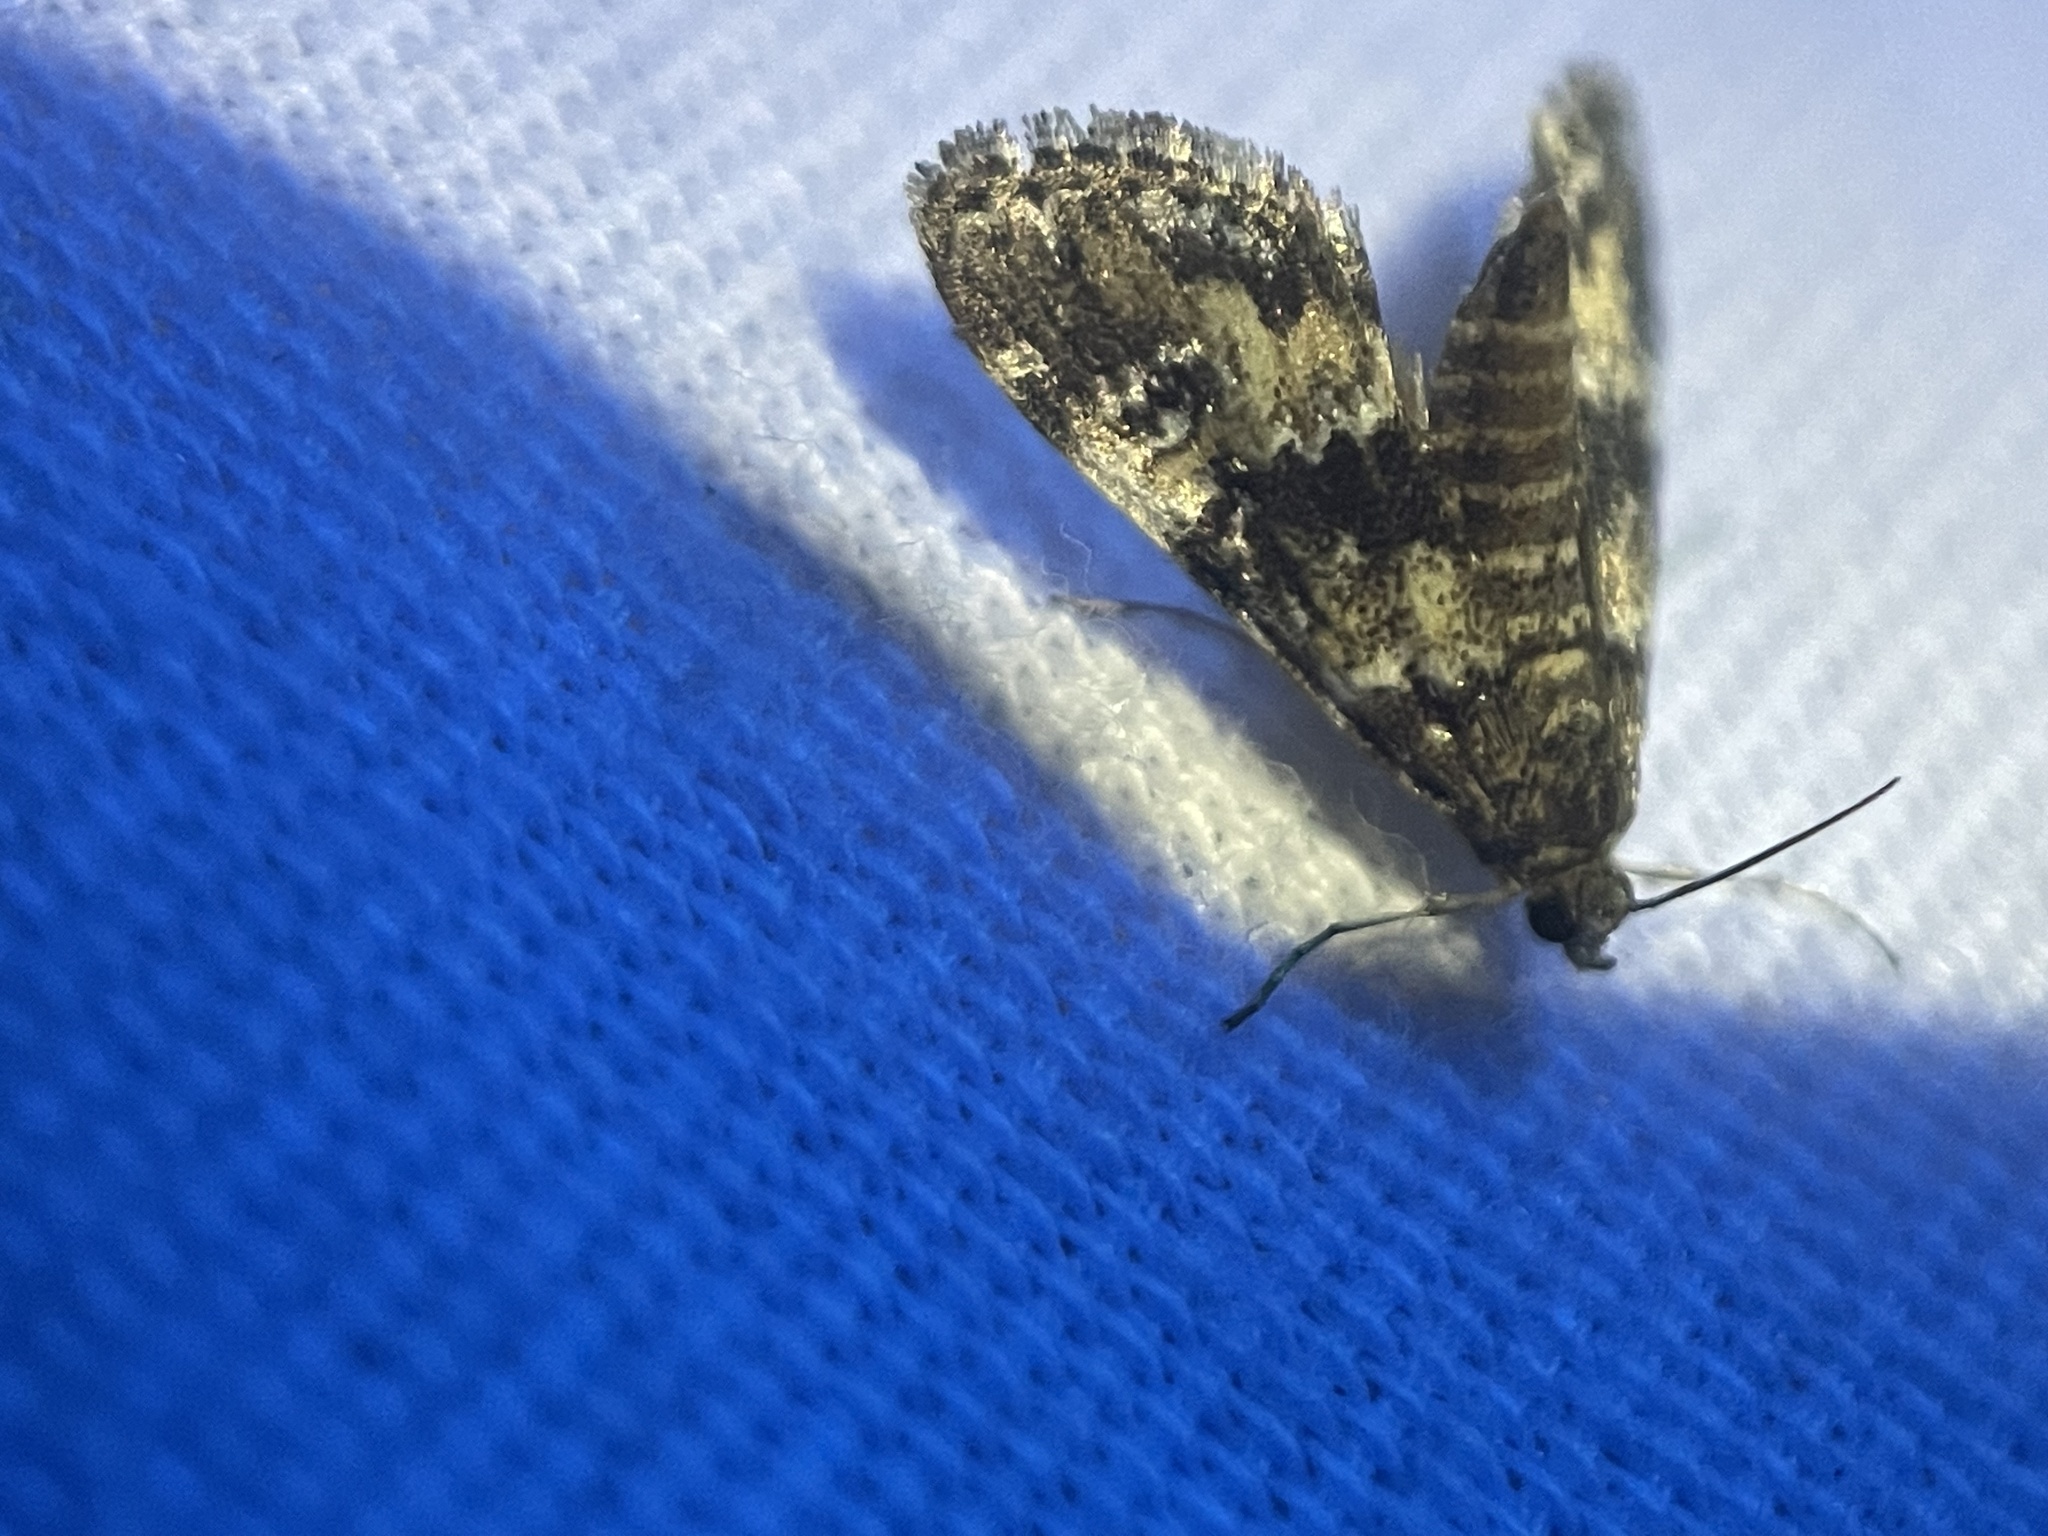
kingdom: Animalia
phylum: Arthropoda
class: Insecta
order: Lepidoptera
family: Crambidae
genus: Elophila
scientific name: Elophila obliteralis
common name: Waterlily leafcutter moth
